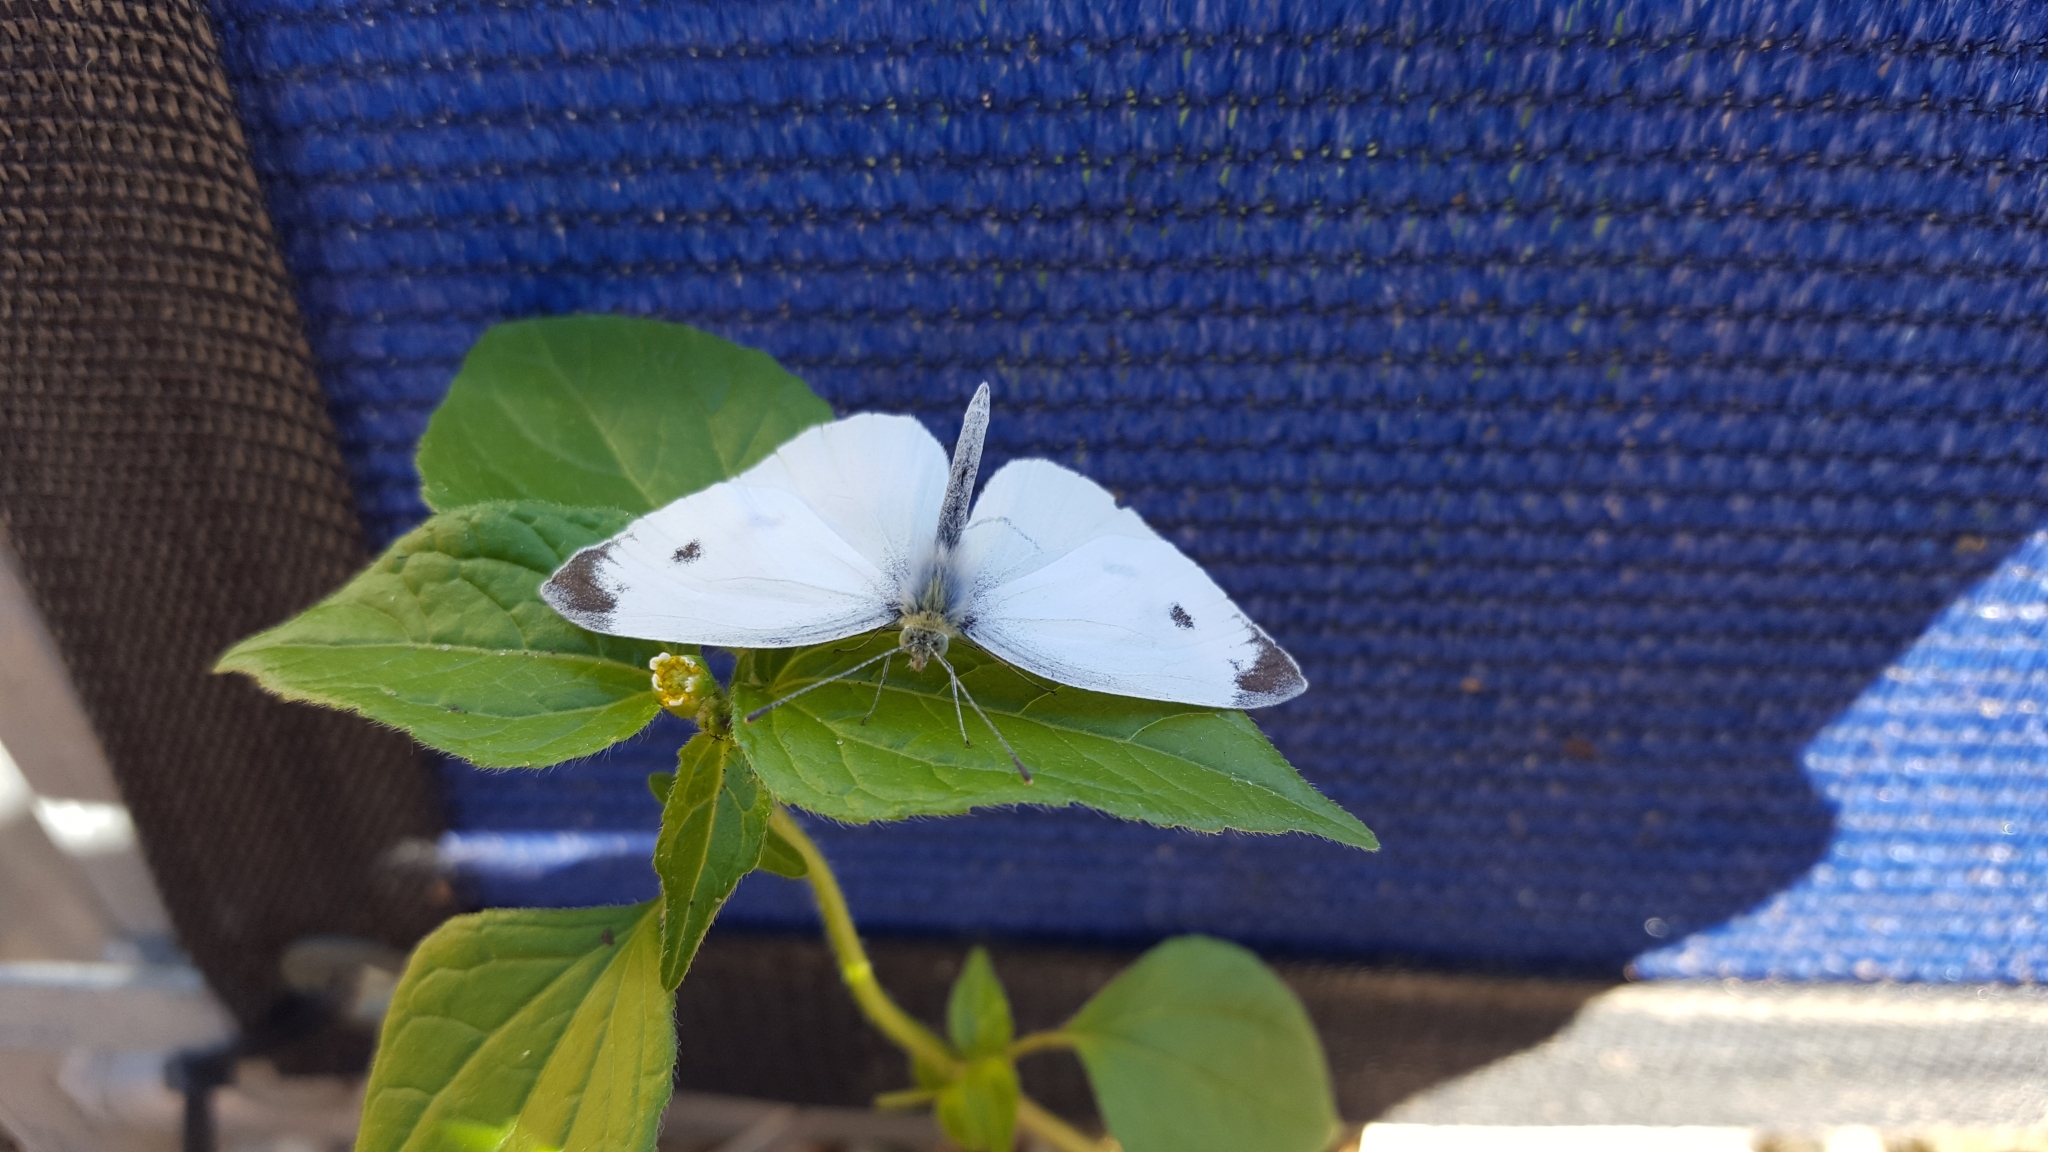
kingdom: Animalia
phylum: Arthropoda
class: Insecta
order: Lepidoptera
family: Pieridae
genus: Pieris
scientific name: Pieris rapae
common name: Small white
